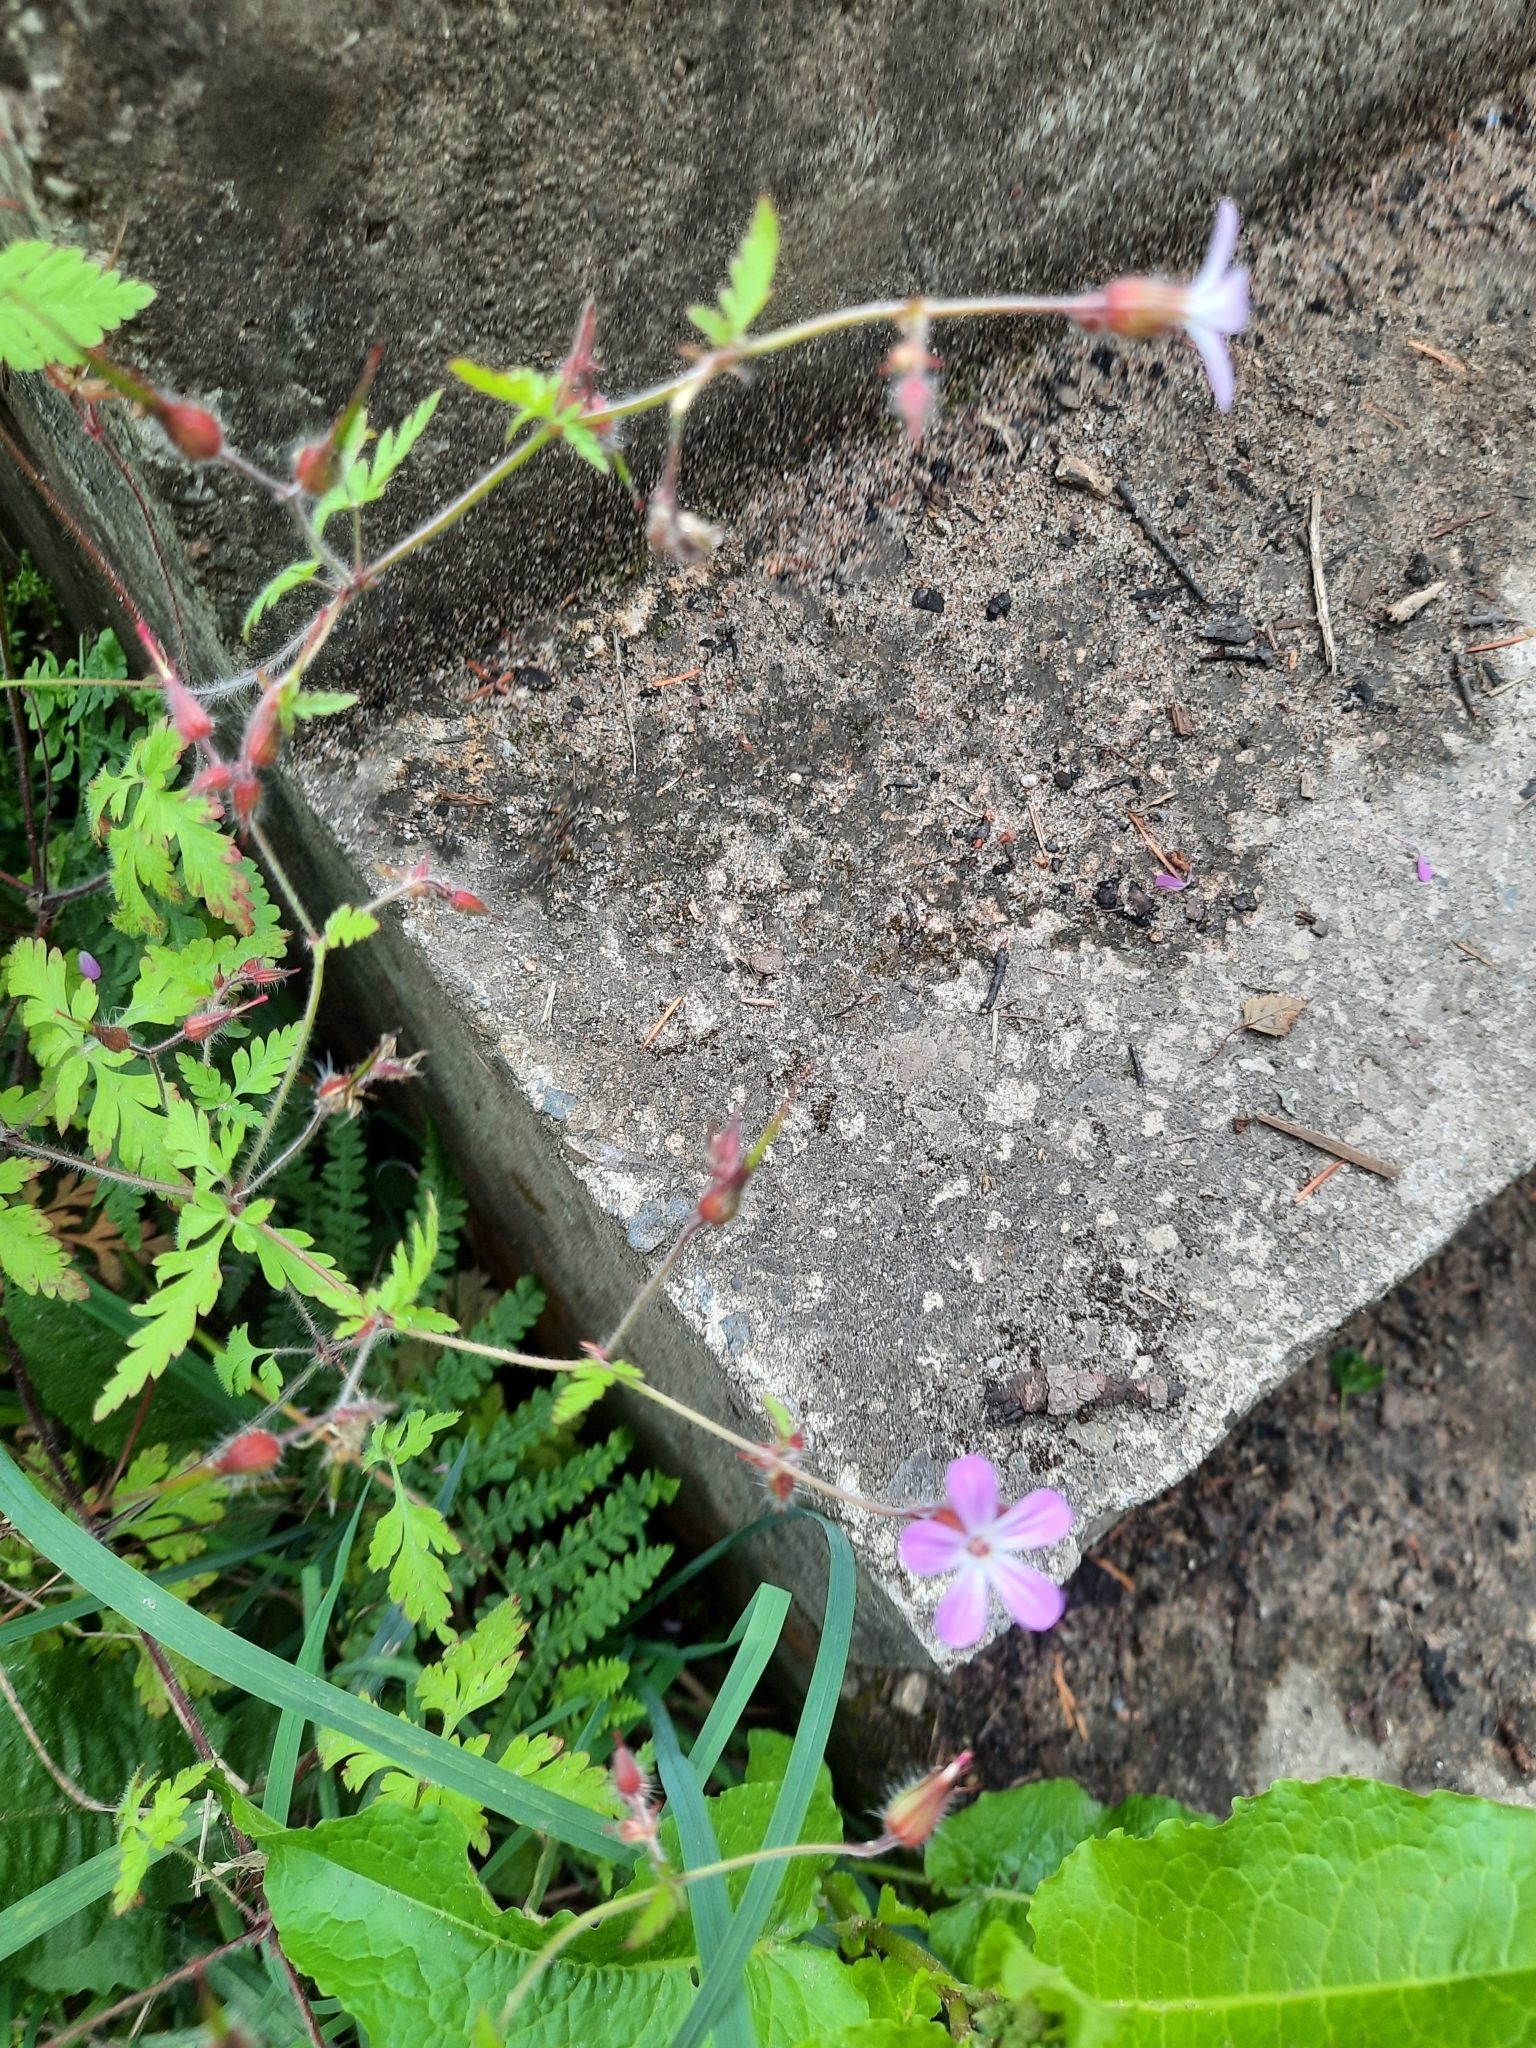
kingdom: Plantae
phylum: Tracheophyta
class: Magnoliopsida
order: Geraniales
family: Geraniaceae
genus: Geranium
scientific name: Geranium robertianum
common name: Herb-robert
